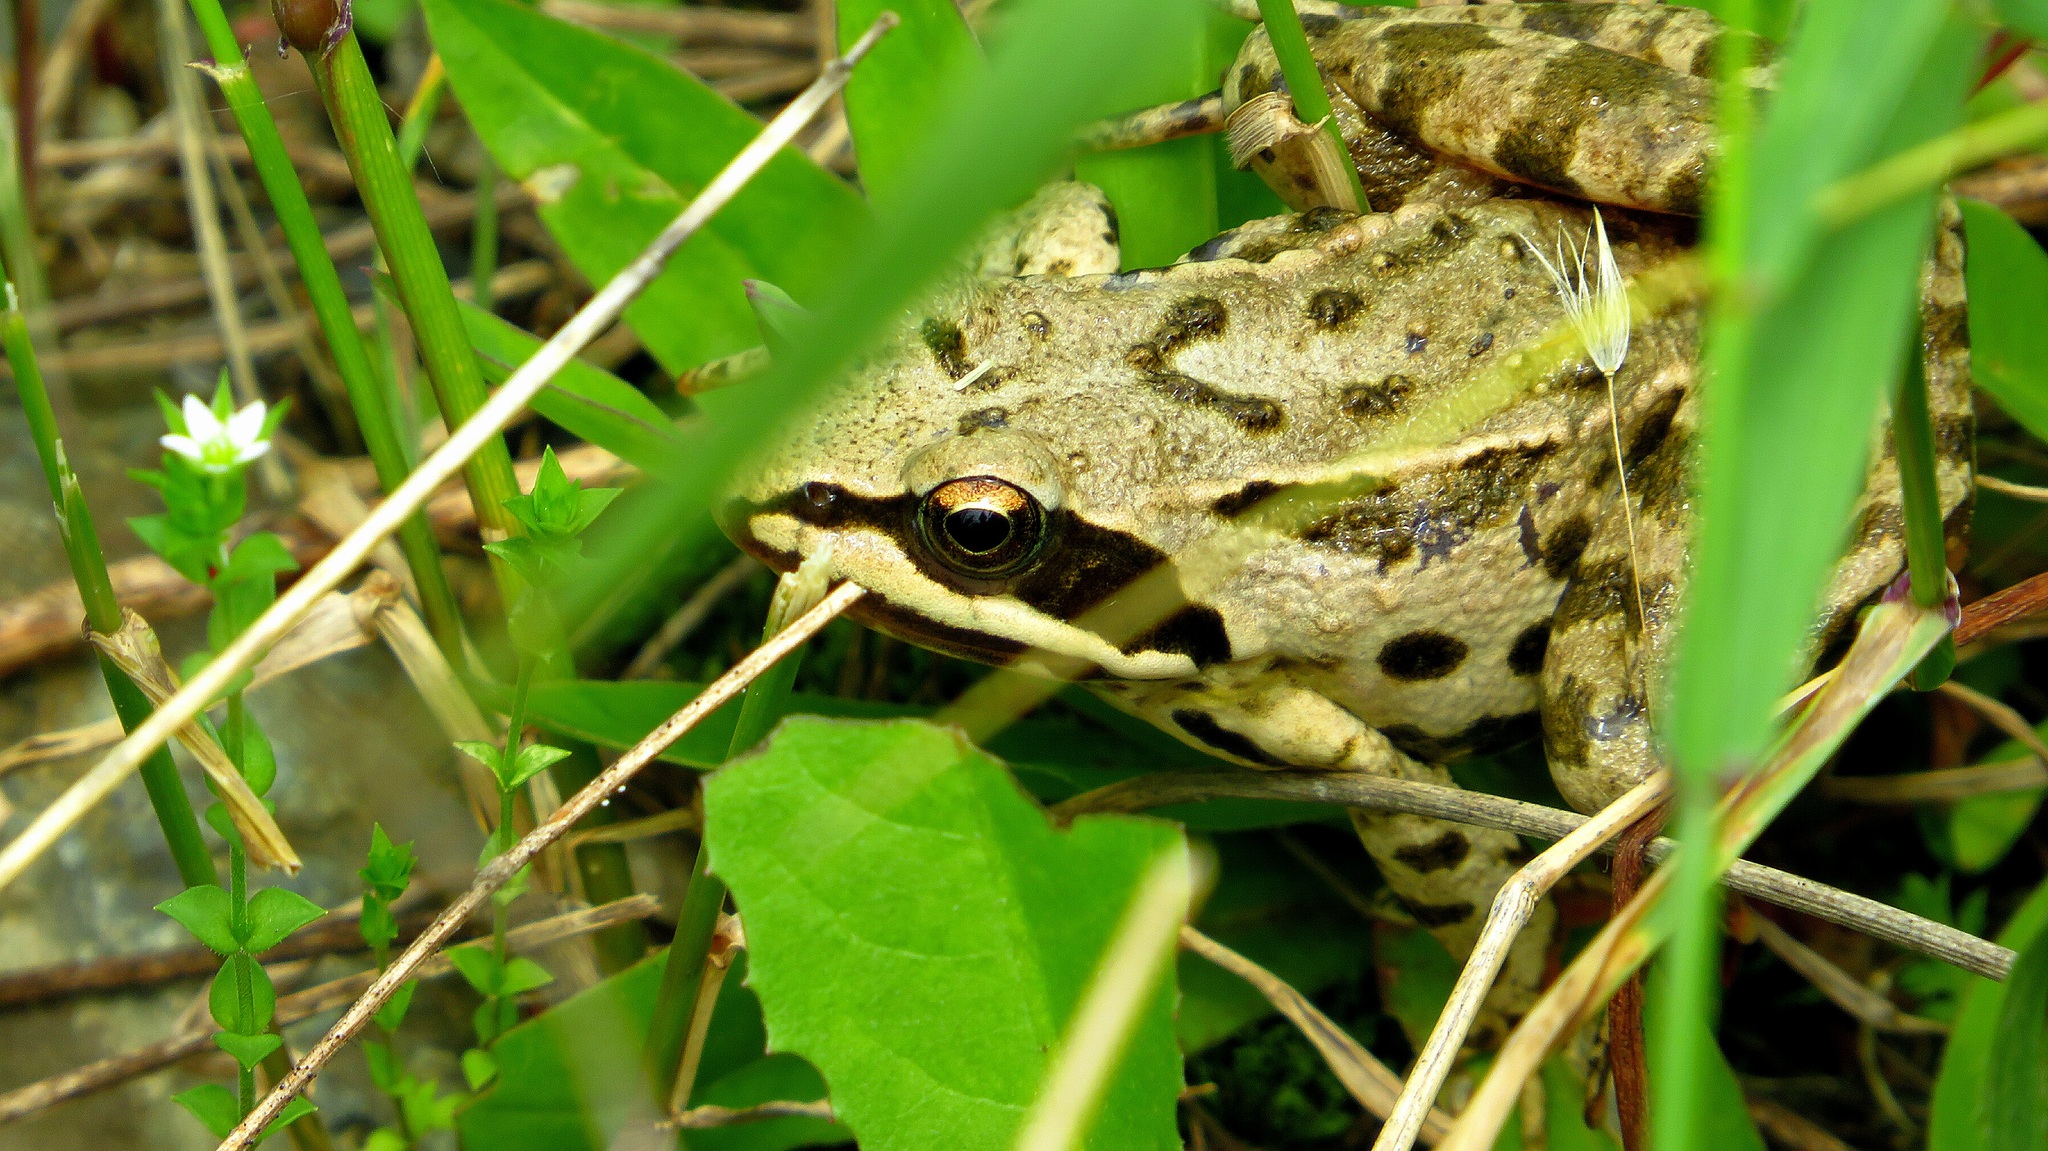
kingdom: Animalia
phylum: Chordata
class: Amphibia
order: Anura
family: Ranidae
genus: Rana
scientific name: Rana macrocnemis
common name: Banded frog
